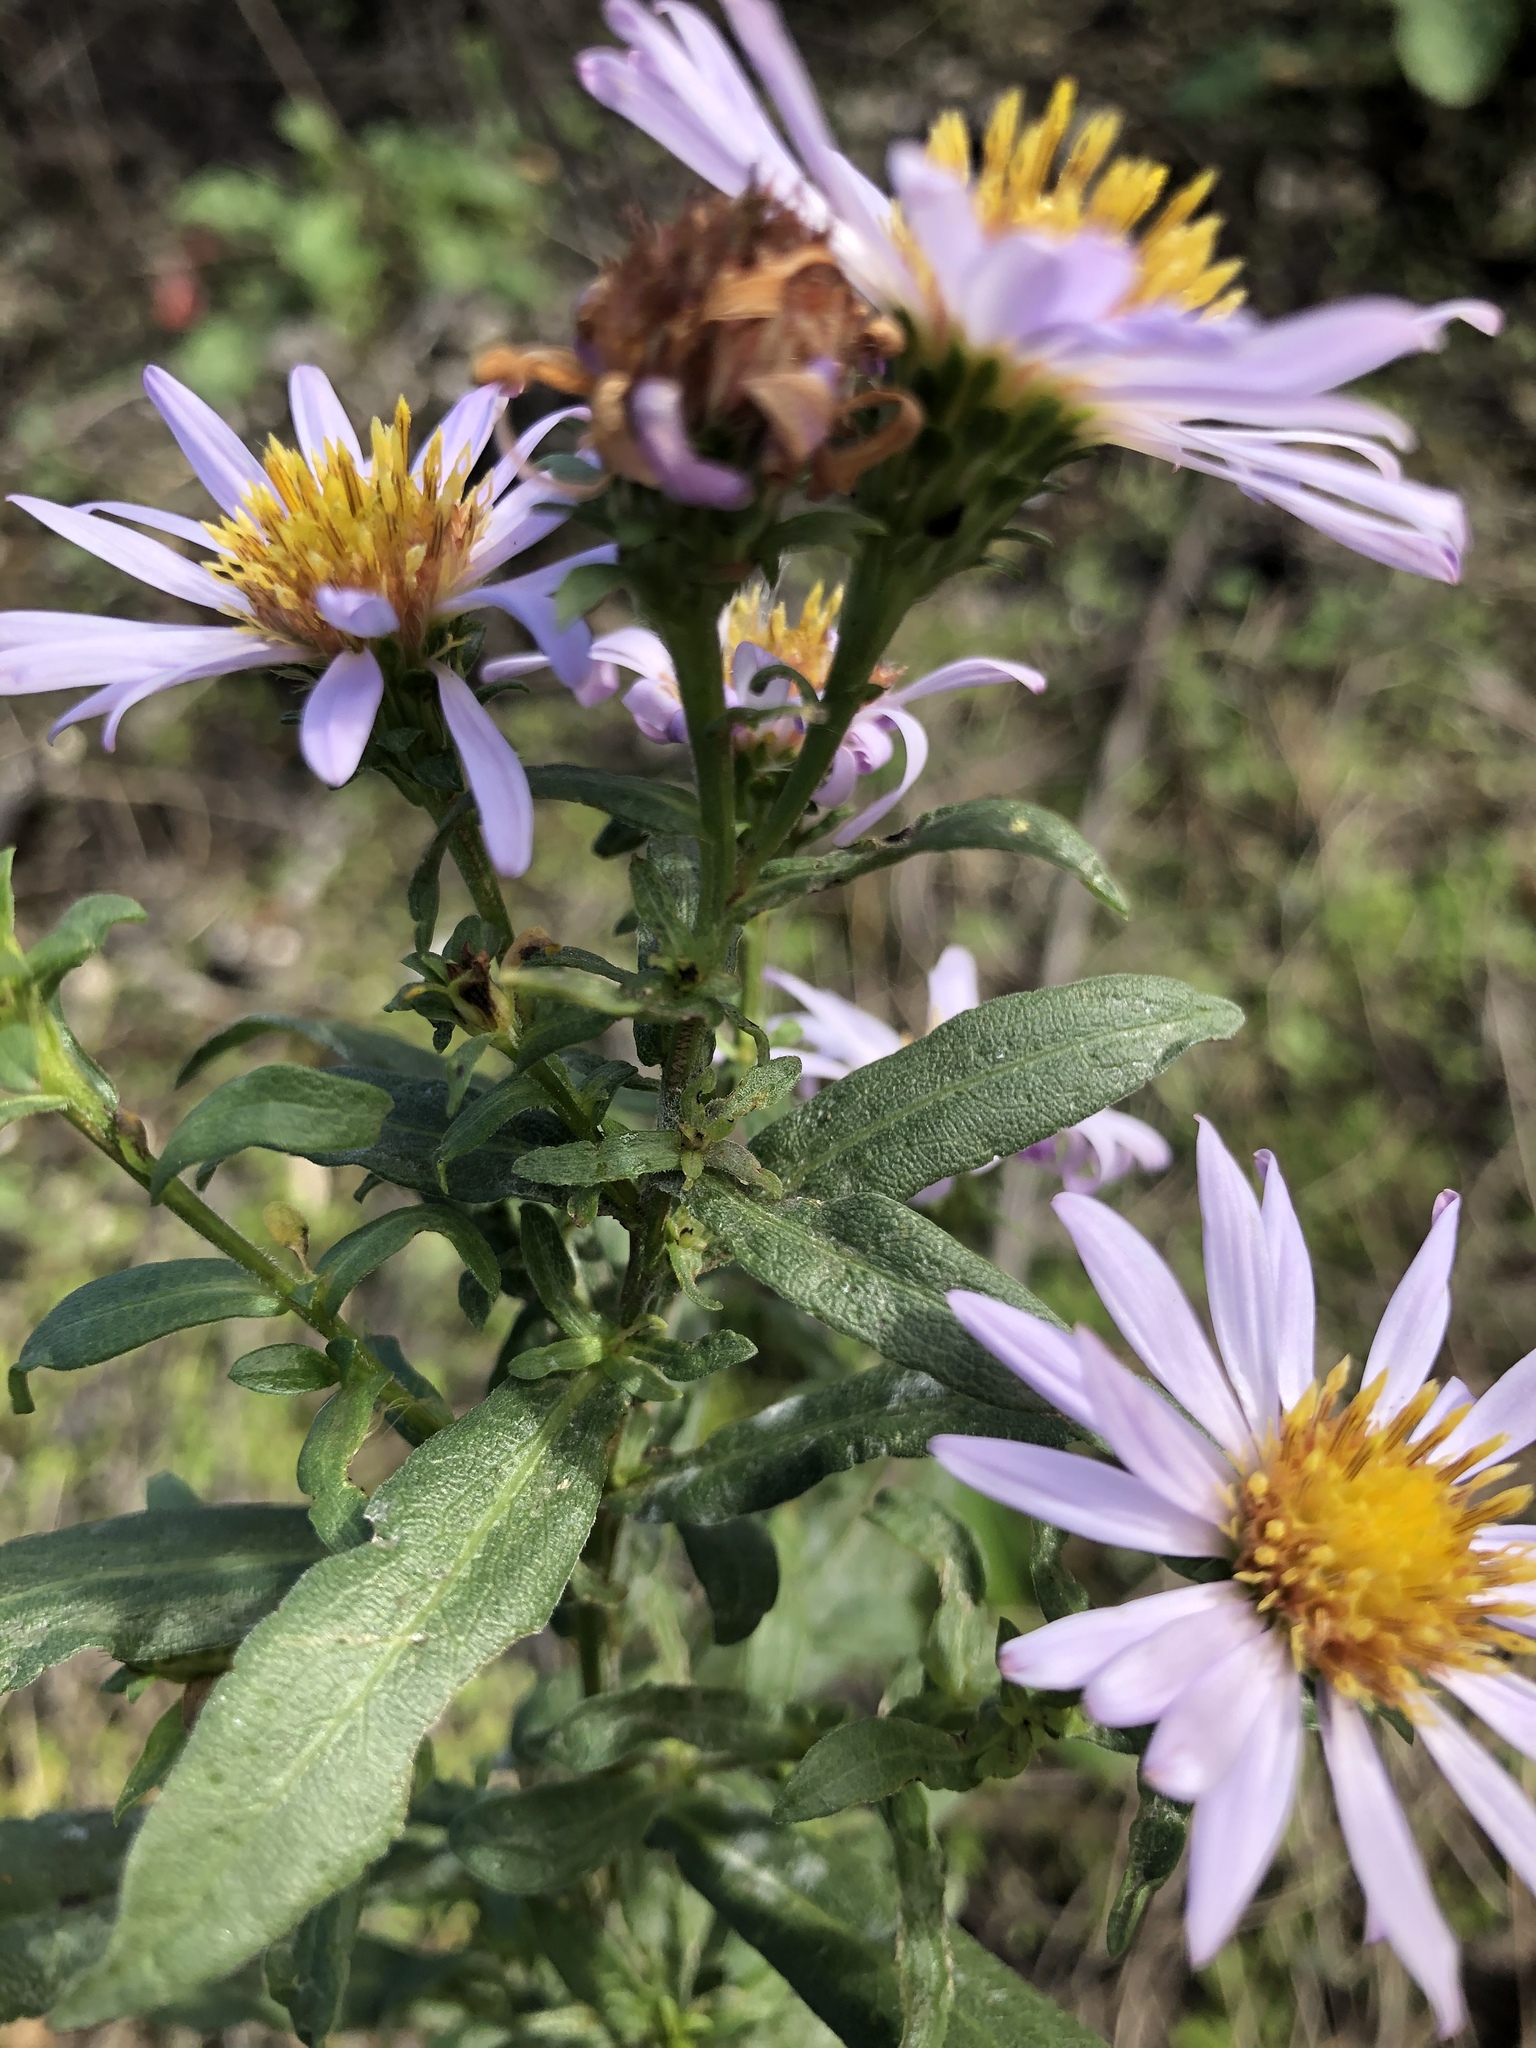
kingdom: Plantae
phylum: Tracheophyta
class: Magnoliopsida
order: Asterales
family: Asteraceae
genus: Symphyotrichum
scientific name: Symphyotrichum chilense
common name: Pacific aster
